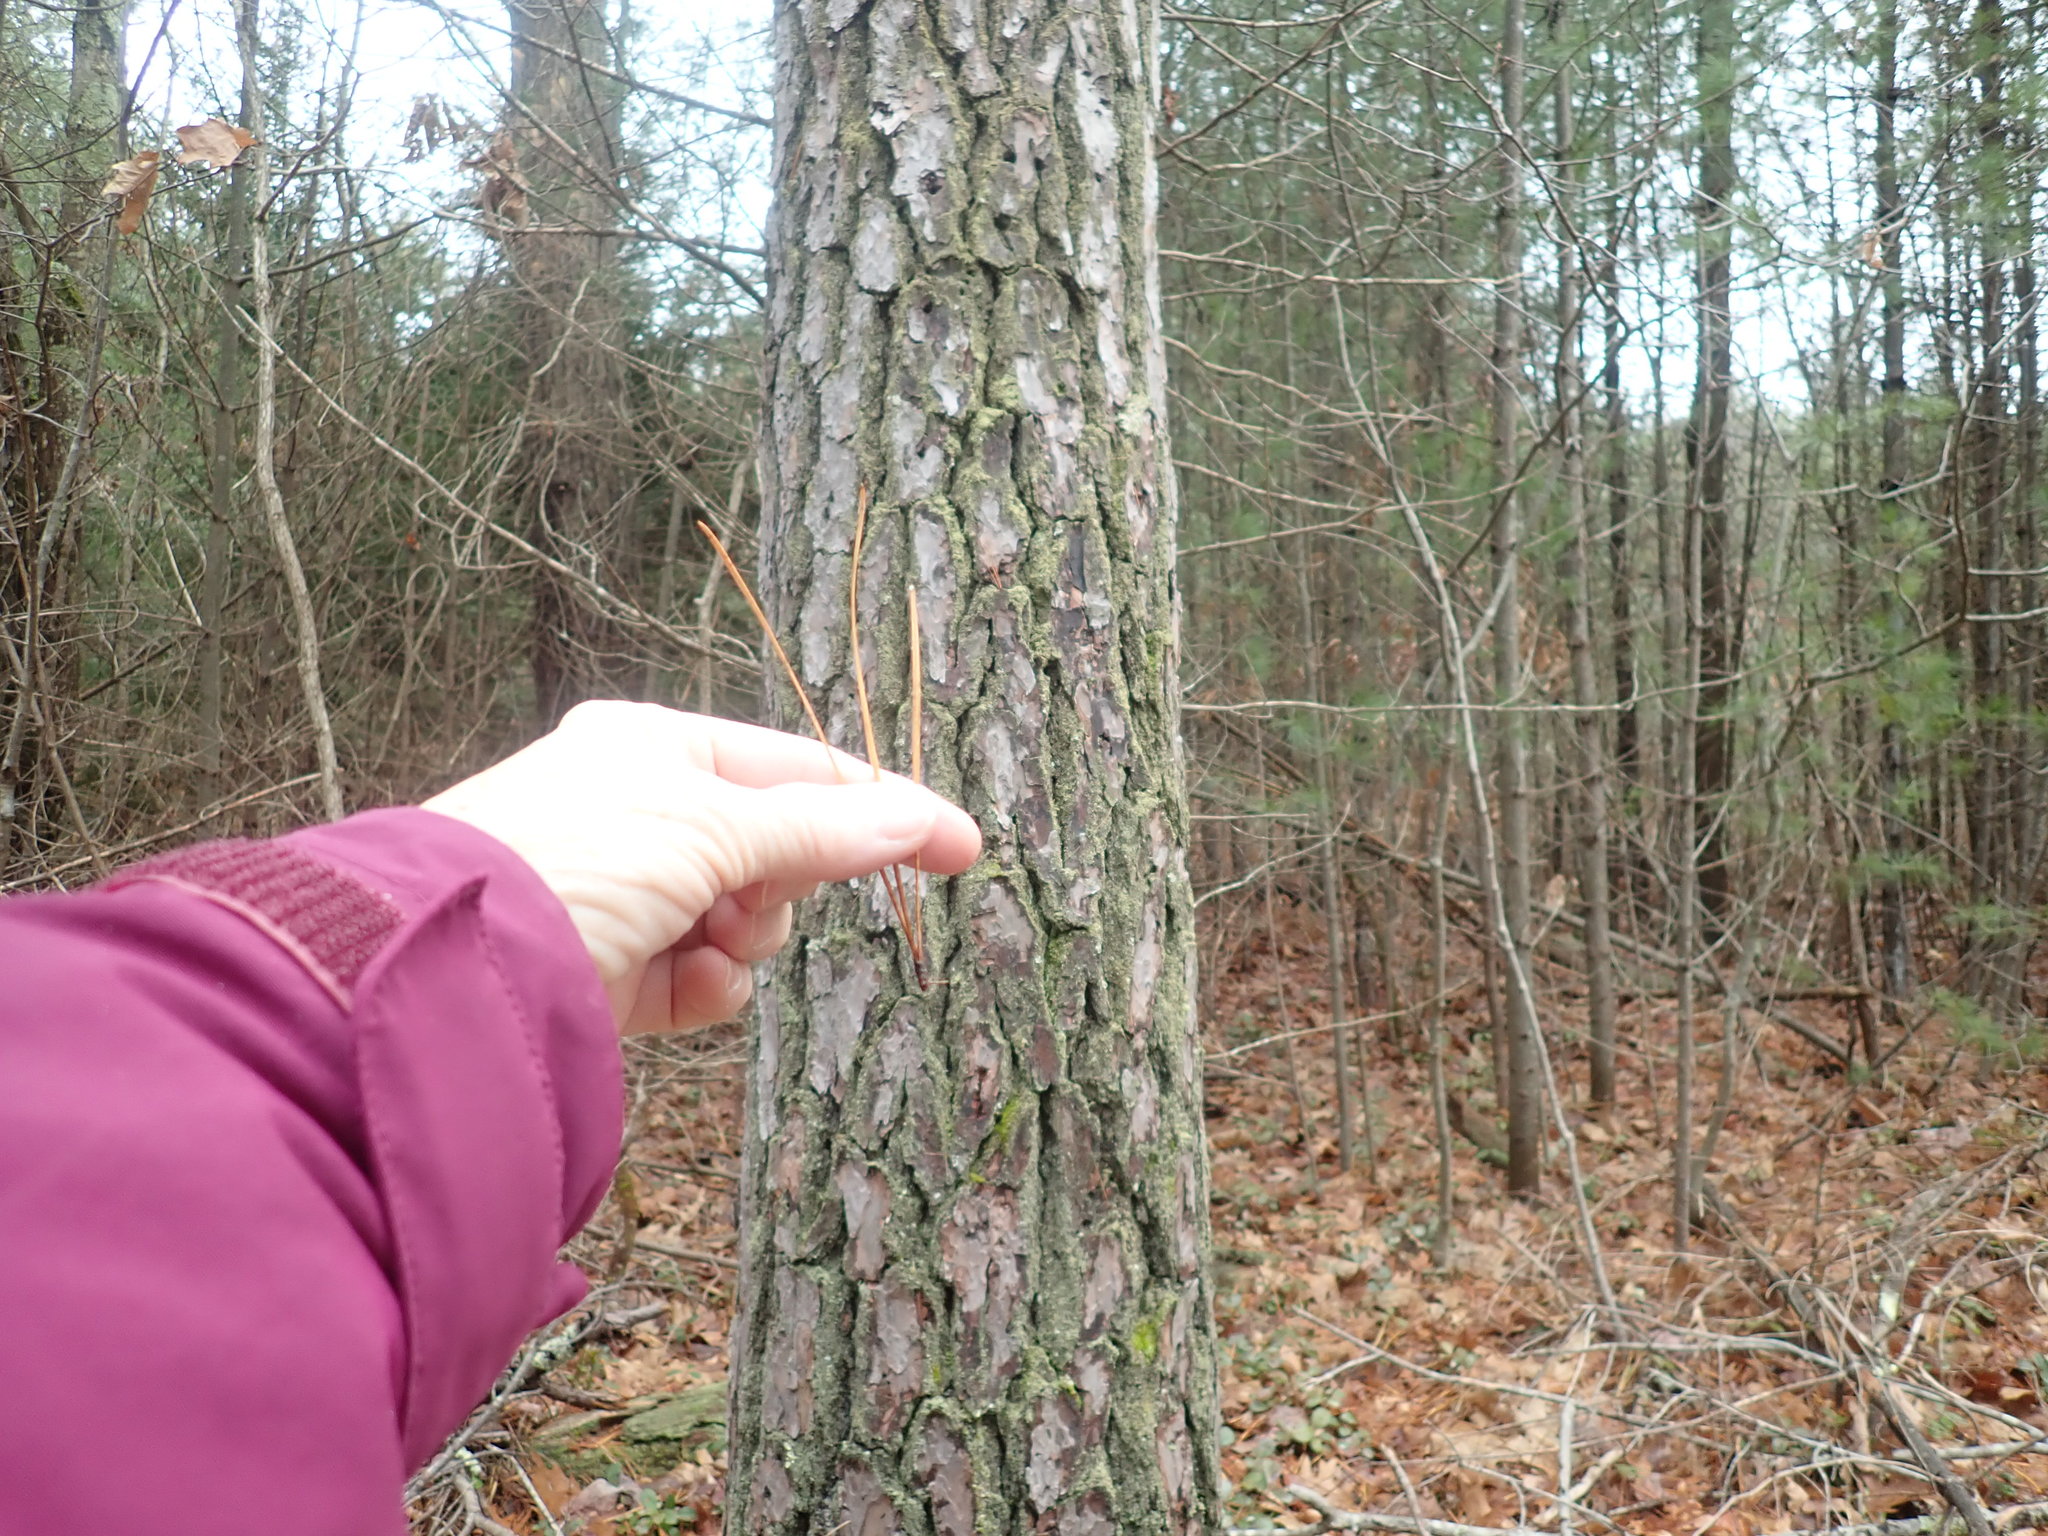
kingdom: Plantae
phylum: Tracheophyta
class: Pinopsida
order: Pinales
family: Pinaceae
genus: Pinus
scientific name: Pinus rigida
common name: Pitch pine
